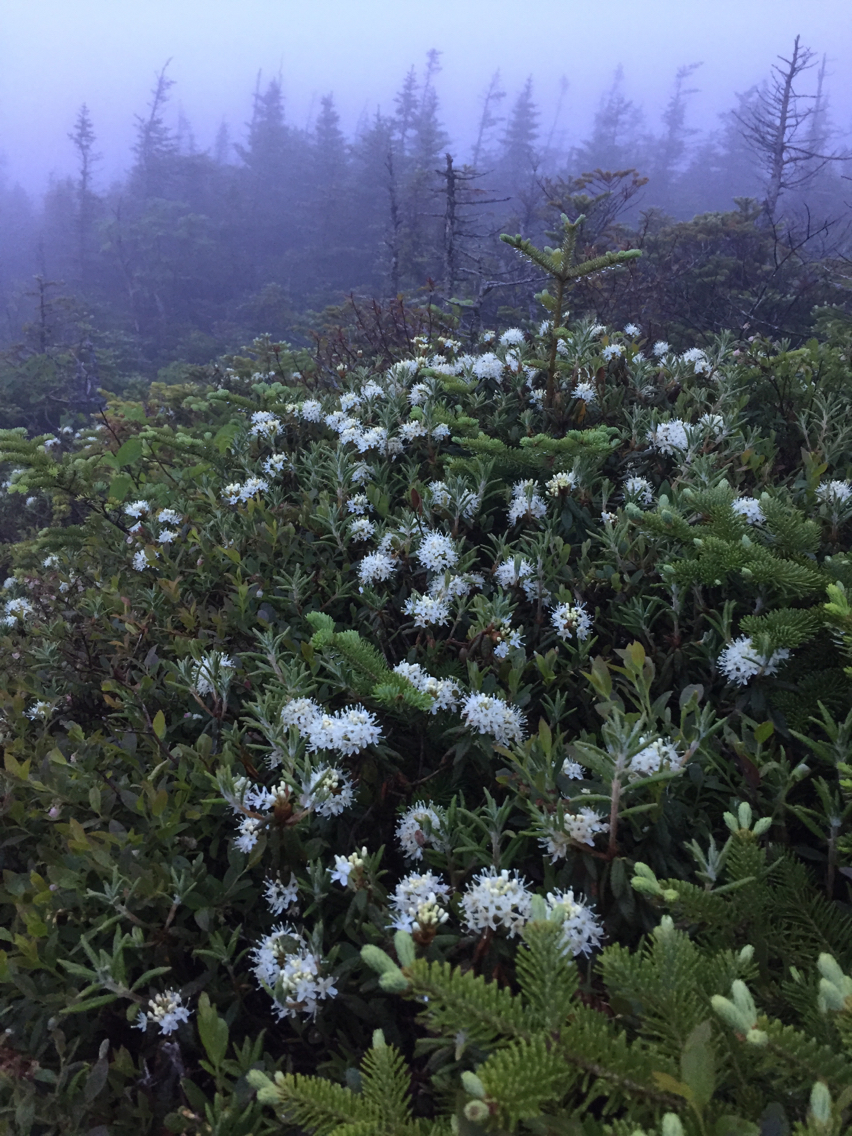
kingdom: Plantae
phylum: Tracheophyta
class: Magnoliopsida
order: Ericales
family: Ericaceae
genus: Rhododendron
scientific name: Rhododendron groenlandicum
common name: Bog labrador tea
